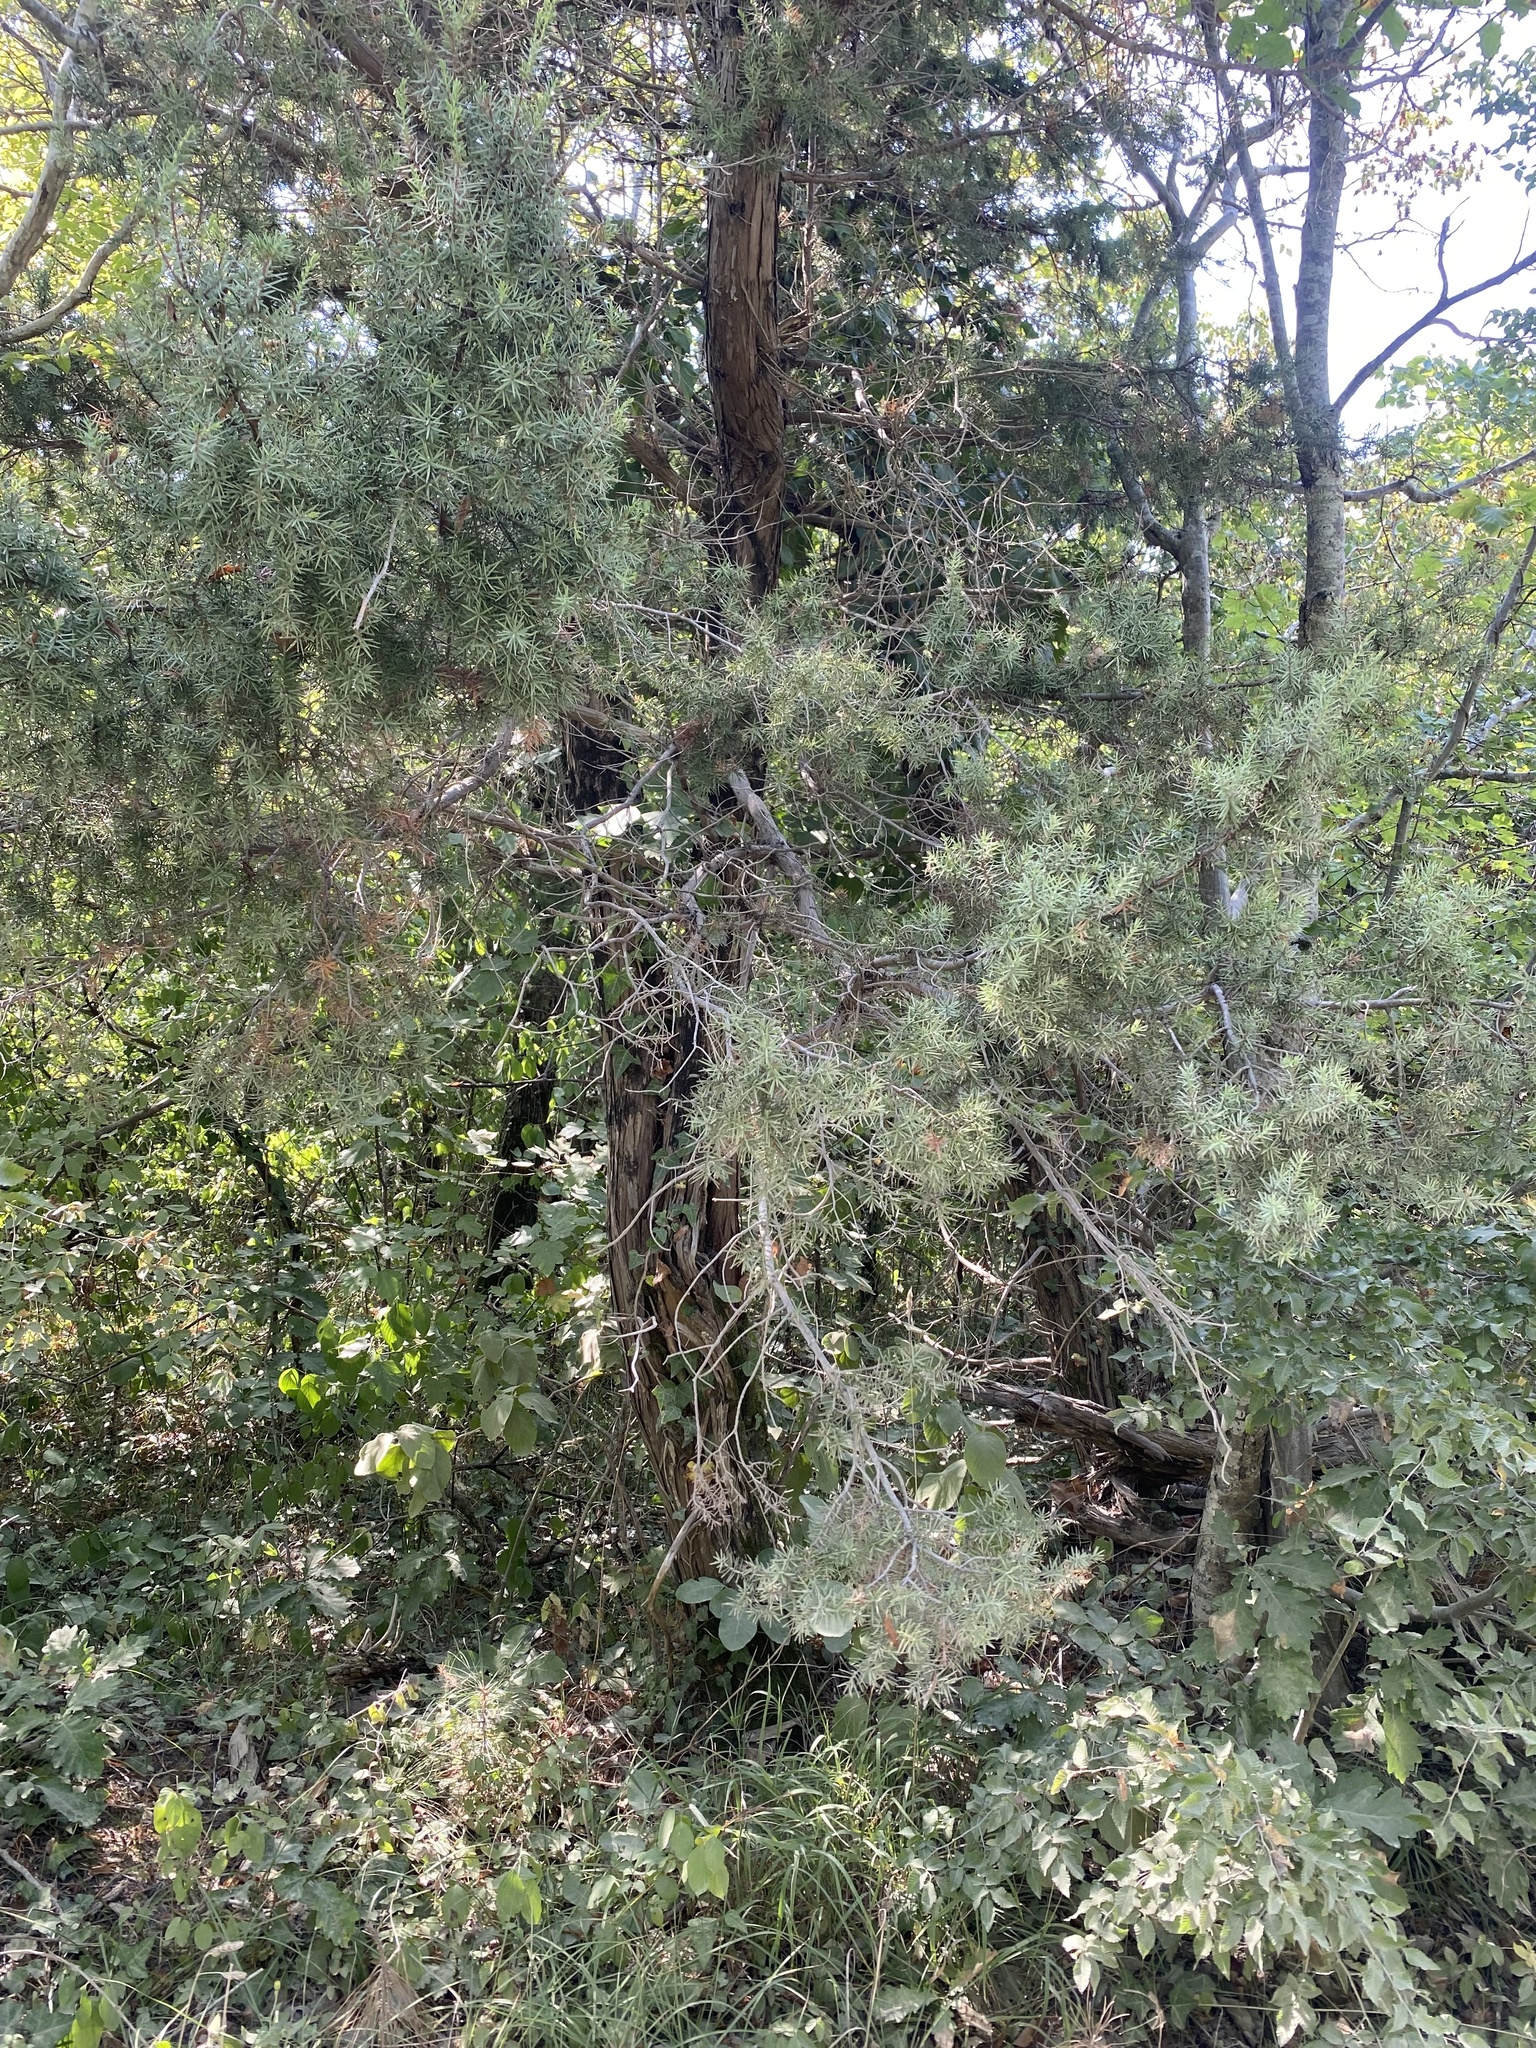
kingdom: Plantae
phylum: Tracheophyta
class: Pinopsida
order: Pinales
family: Cupressaceae
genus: Juniperus
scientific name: Juniperus oxycedrus
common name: Prickly juniper
